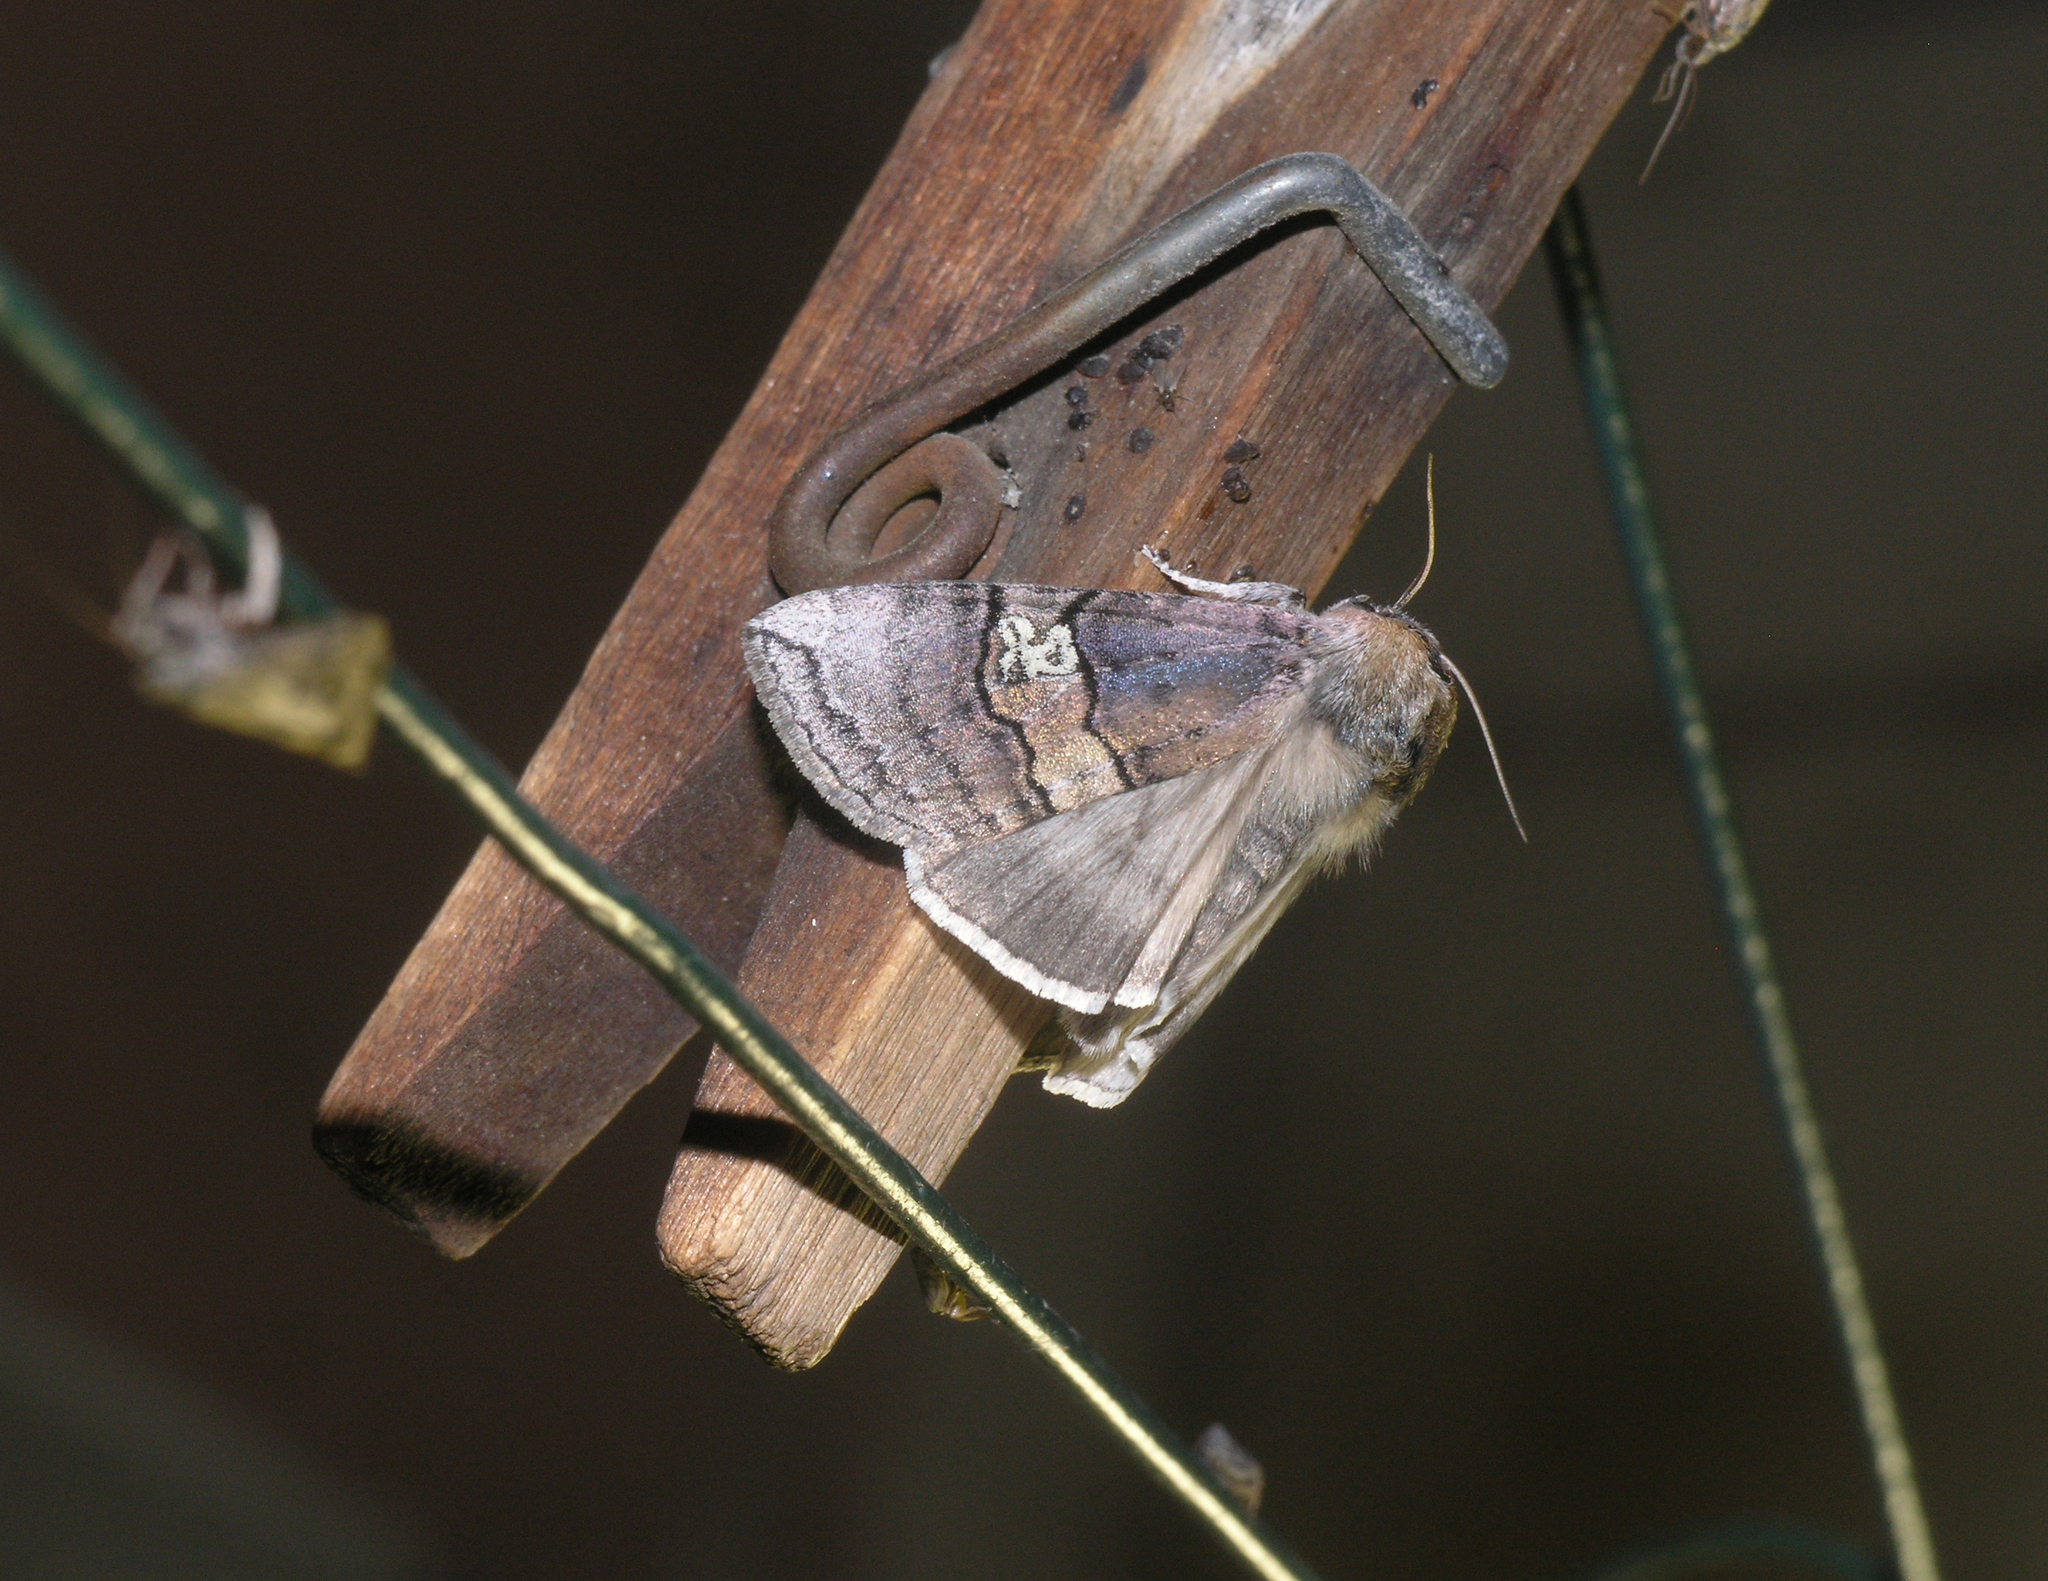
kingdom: Animalia
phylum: Arthropoda
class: Insecta
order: Lepidoptera
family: Drepanidae
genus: Tethea
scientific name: Tethea ocularis
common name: Figure of eighty
